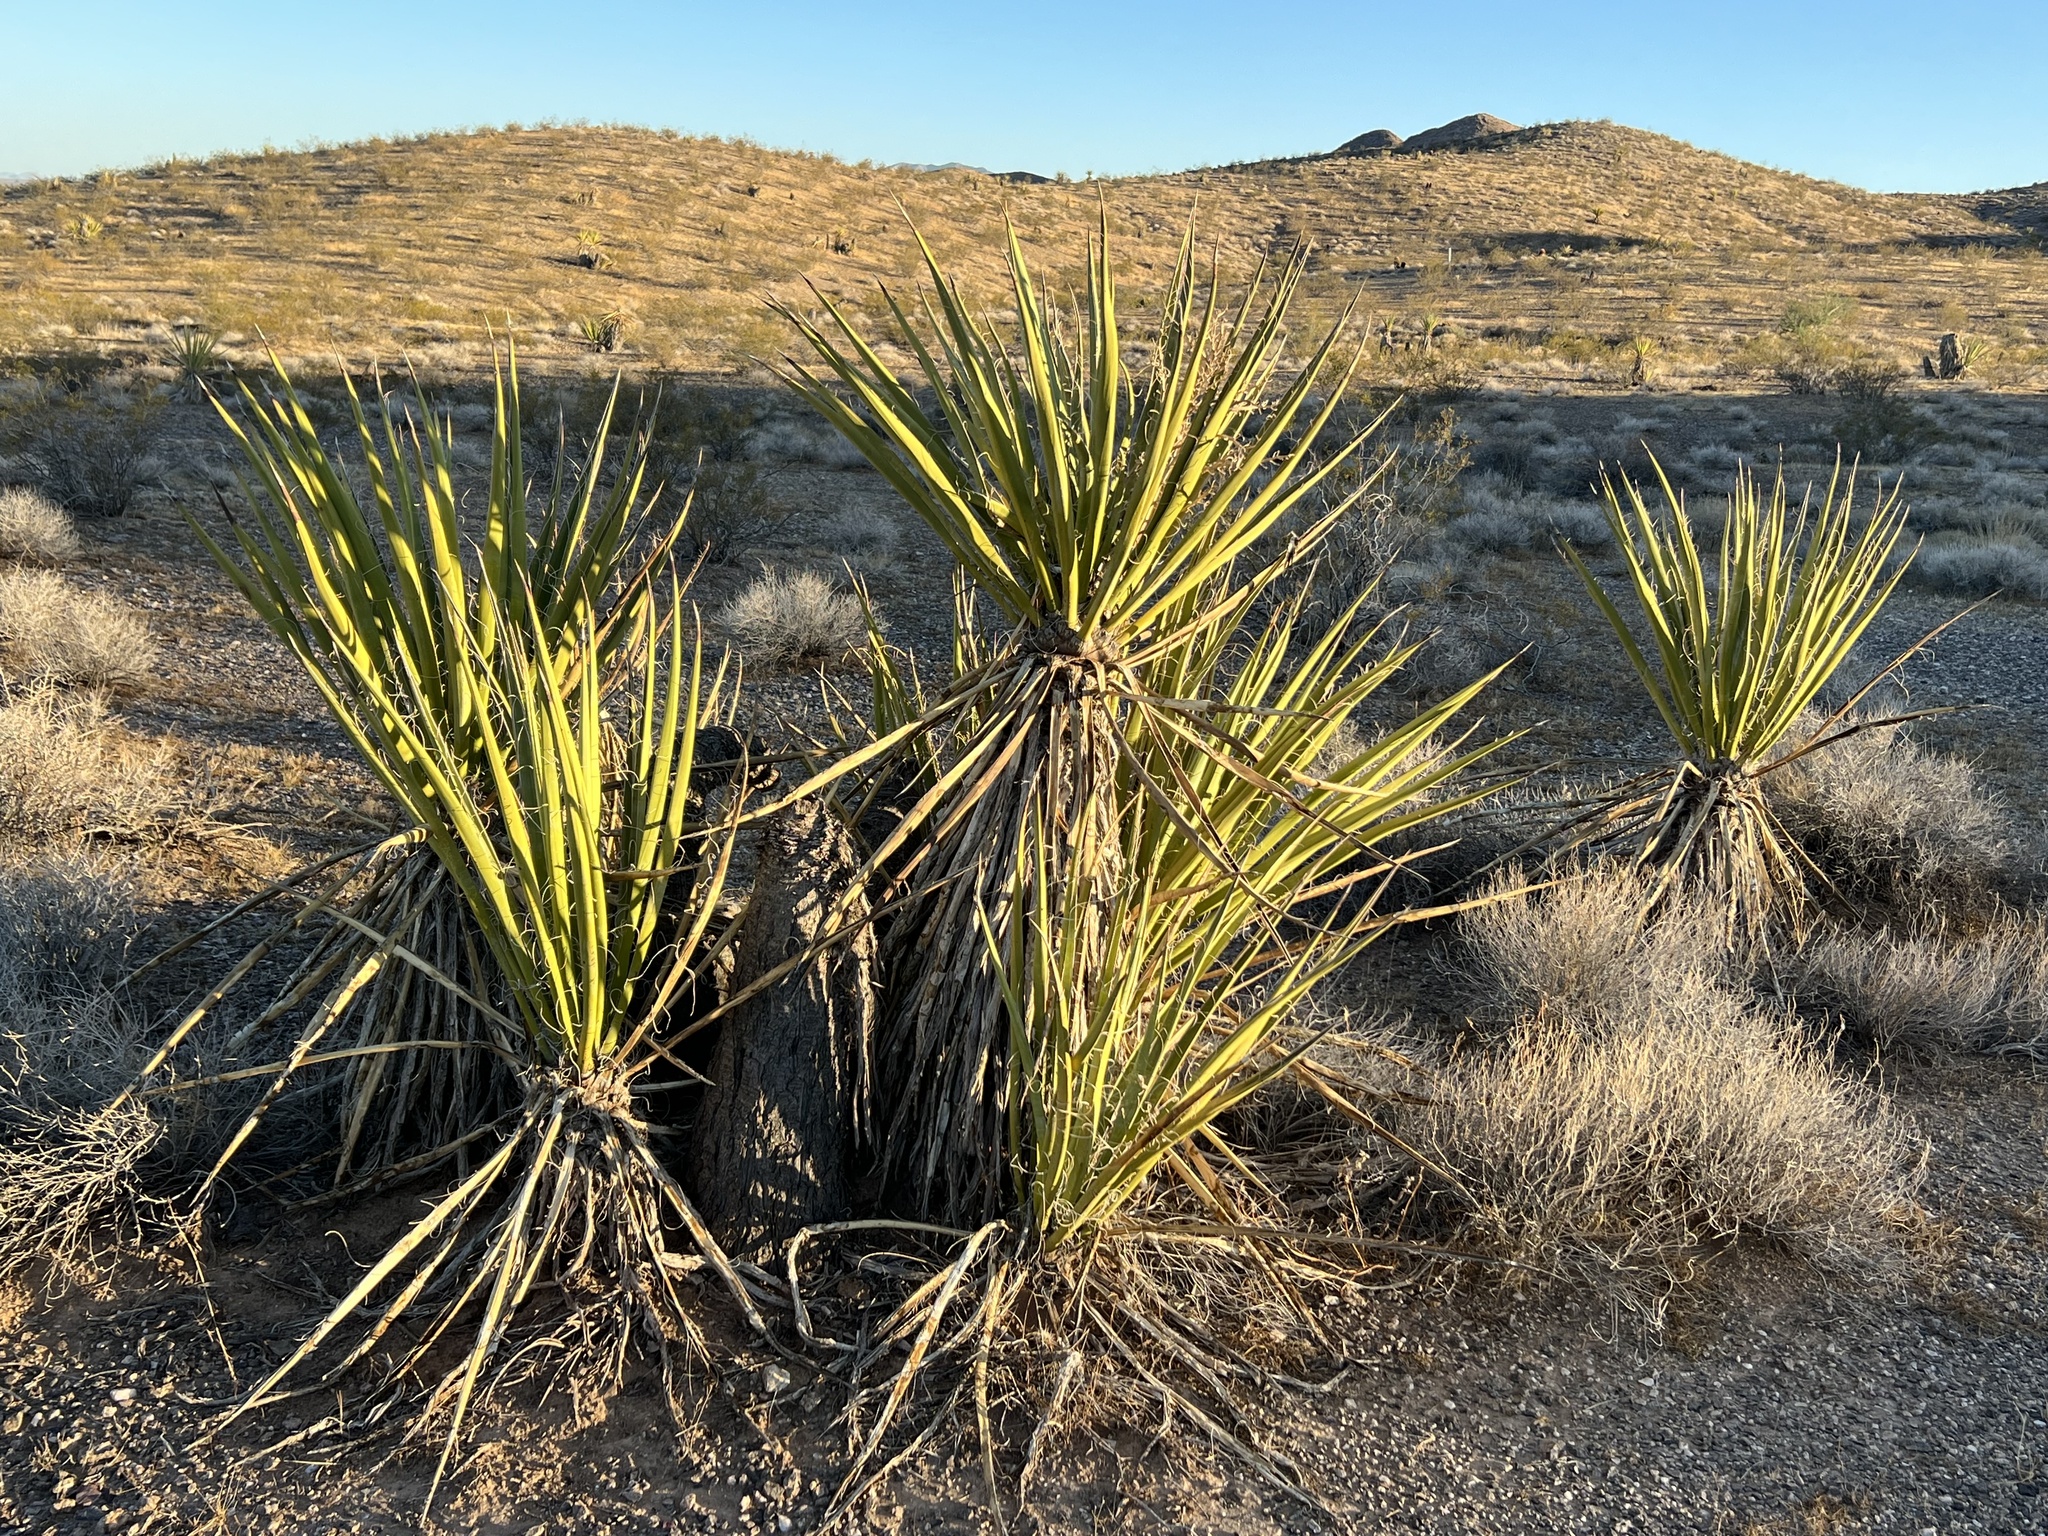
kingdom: Plantae
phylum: Tracheophyta
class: Liliopsida
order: Asparagales
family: Asparagaceae
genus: Yucca
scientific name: Yucca schidigera
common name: Mojave yucca
